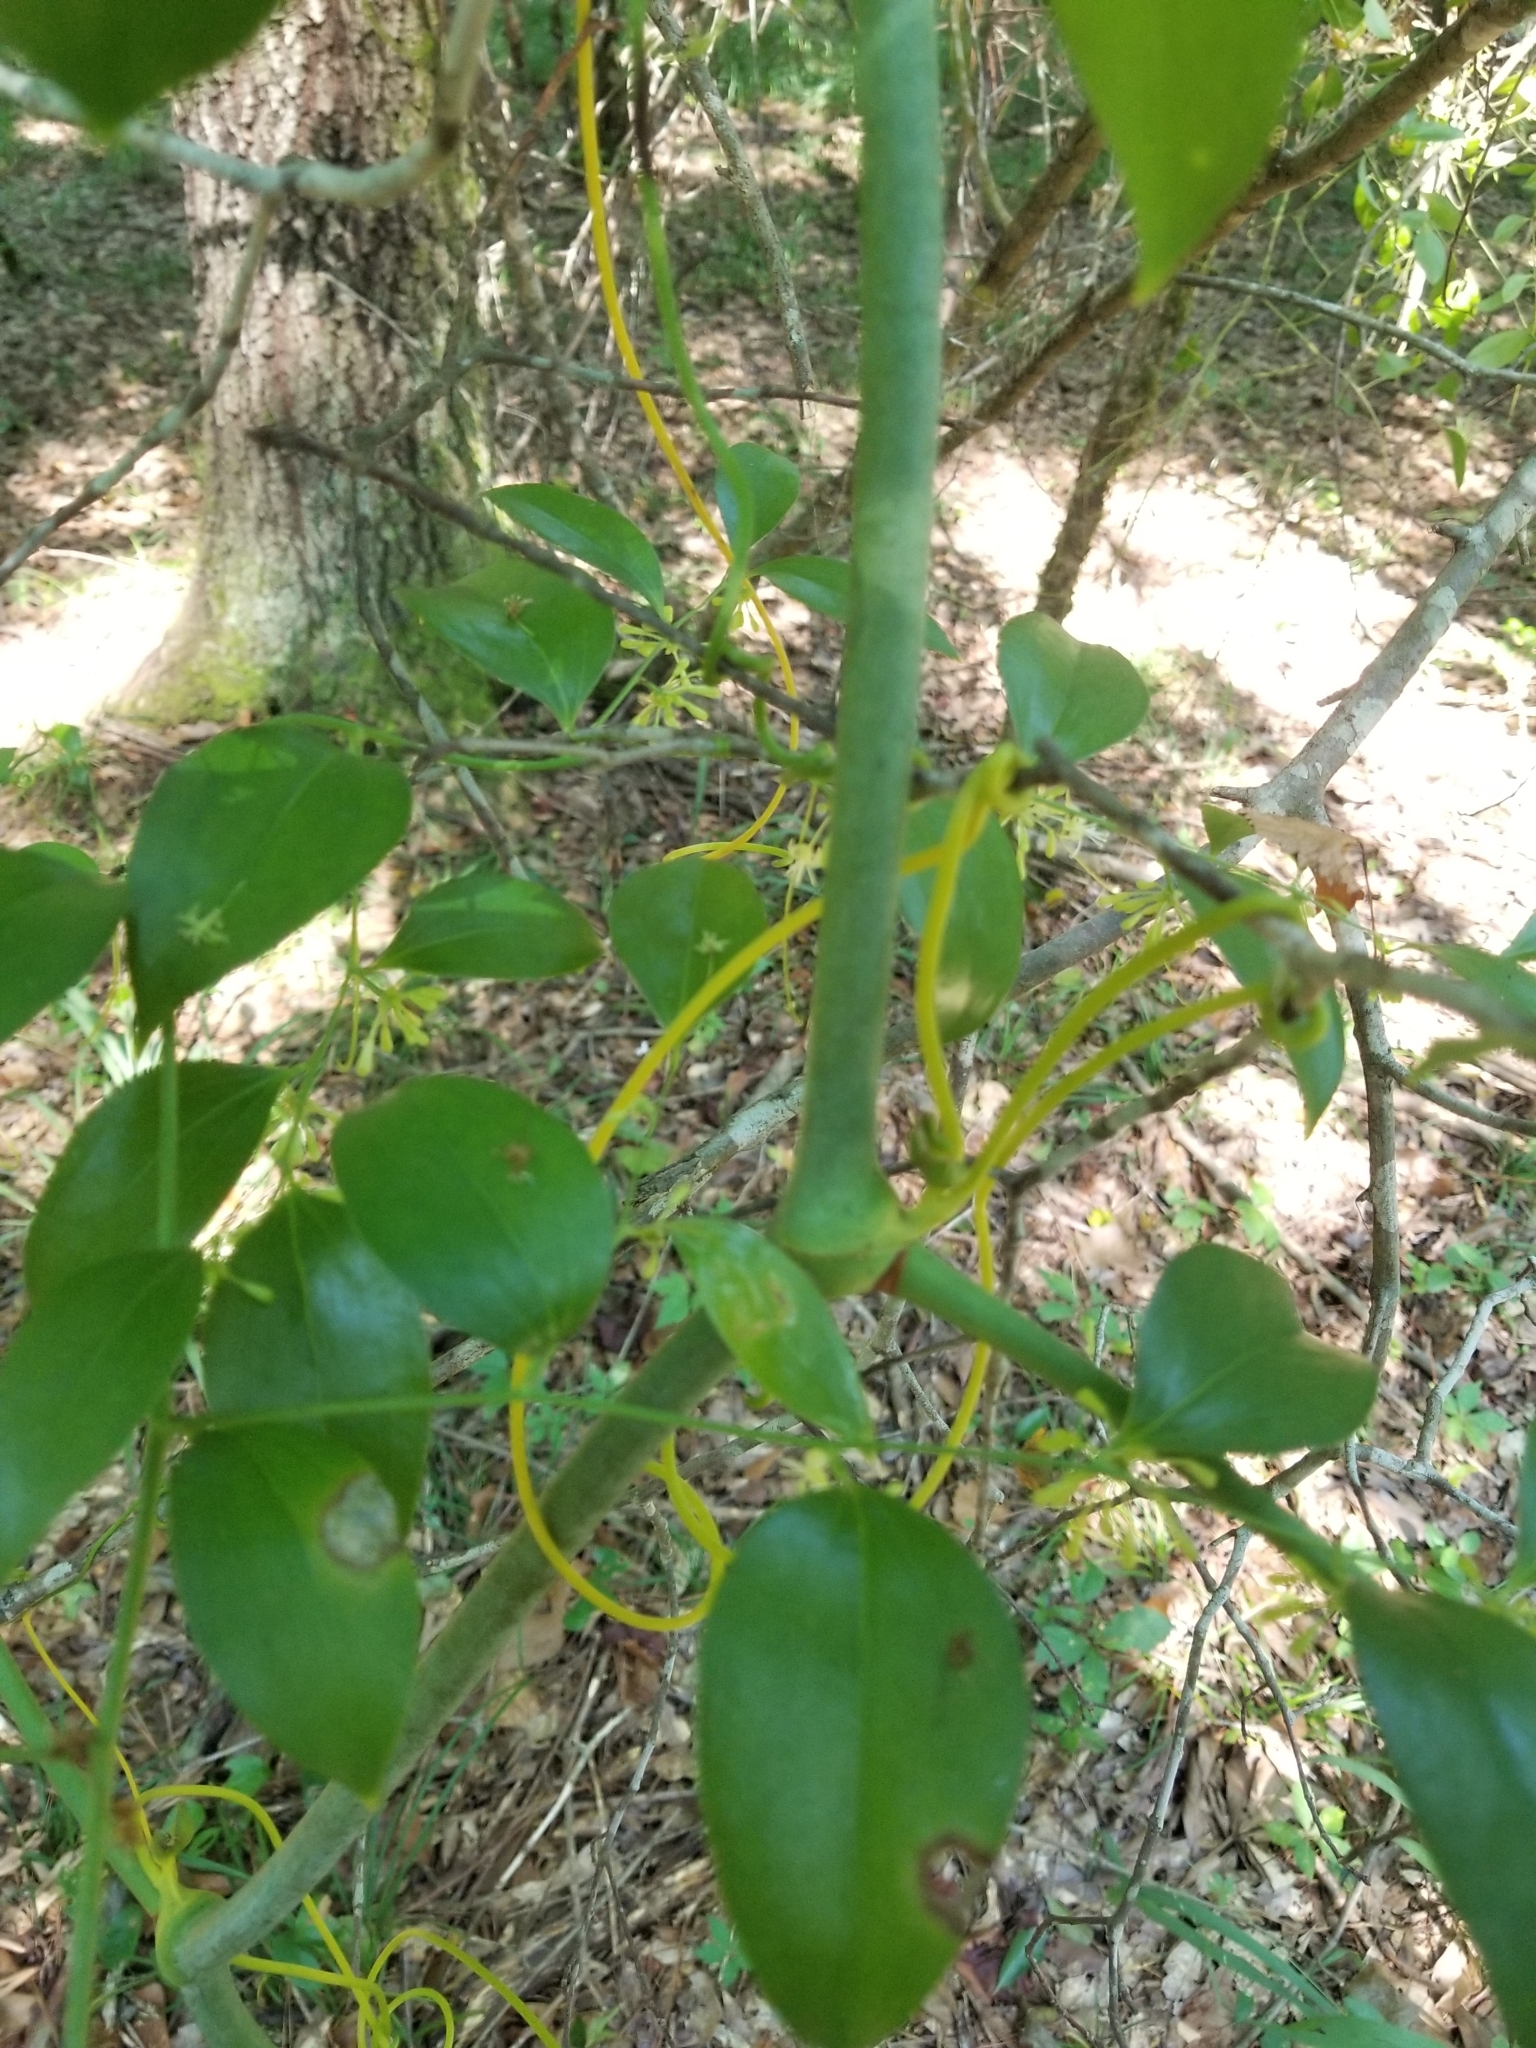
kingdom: Plantae
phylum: Tracheophyta
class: Liliopsida
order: Liliales
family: Smilacaceae
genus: Smilax
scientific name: Smilax maritima
